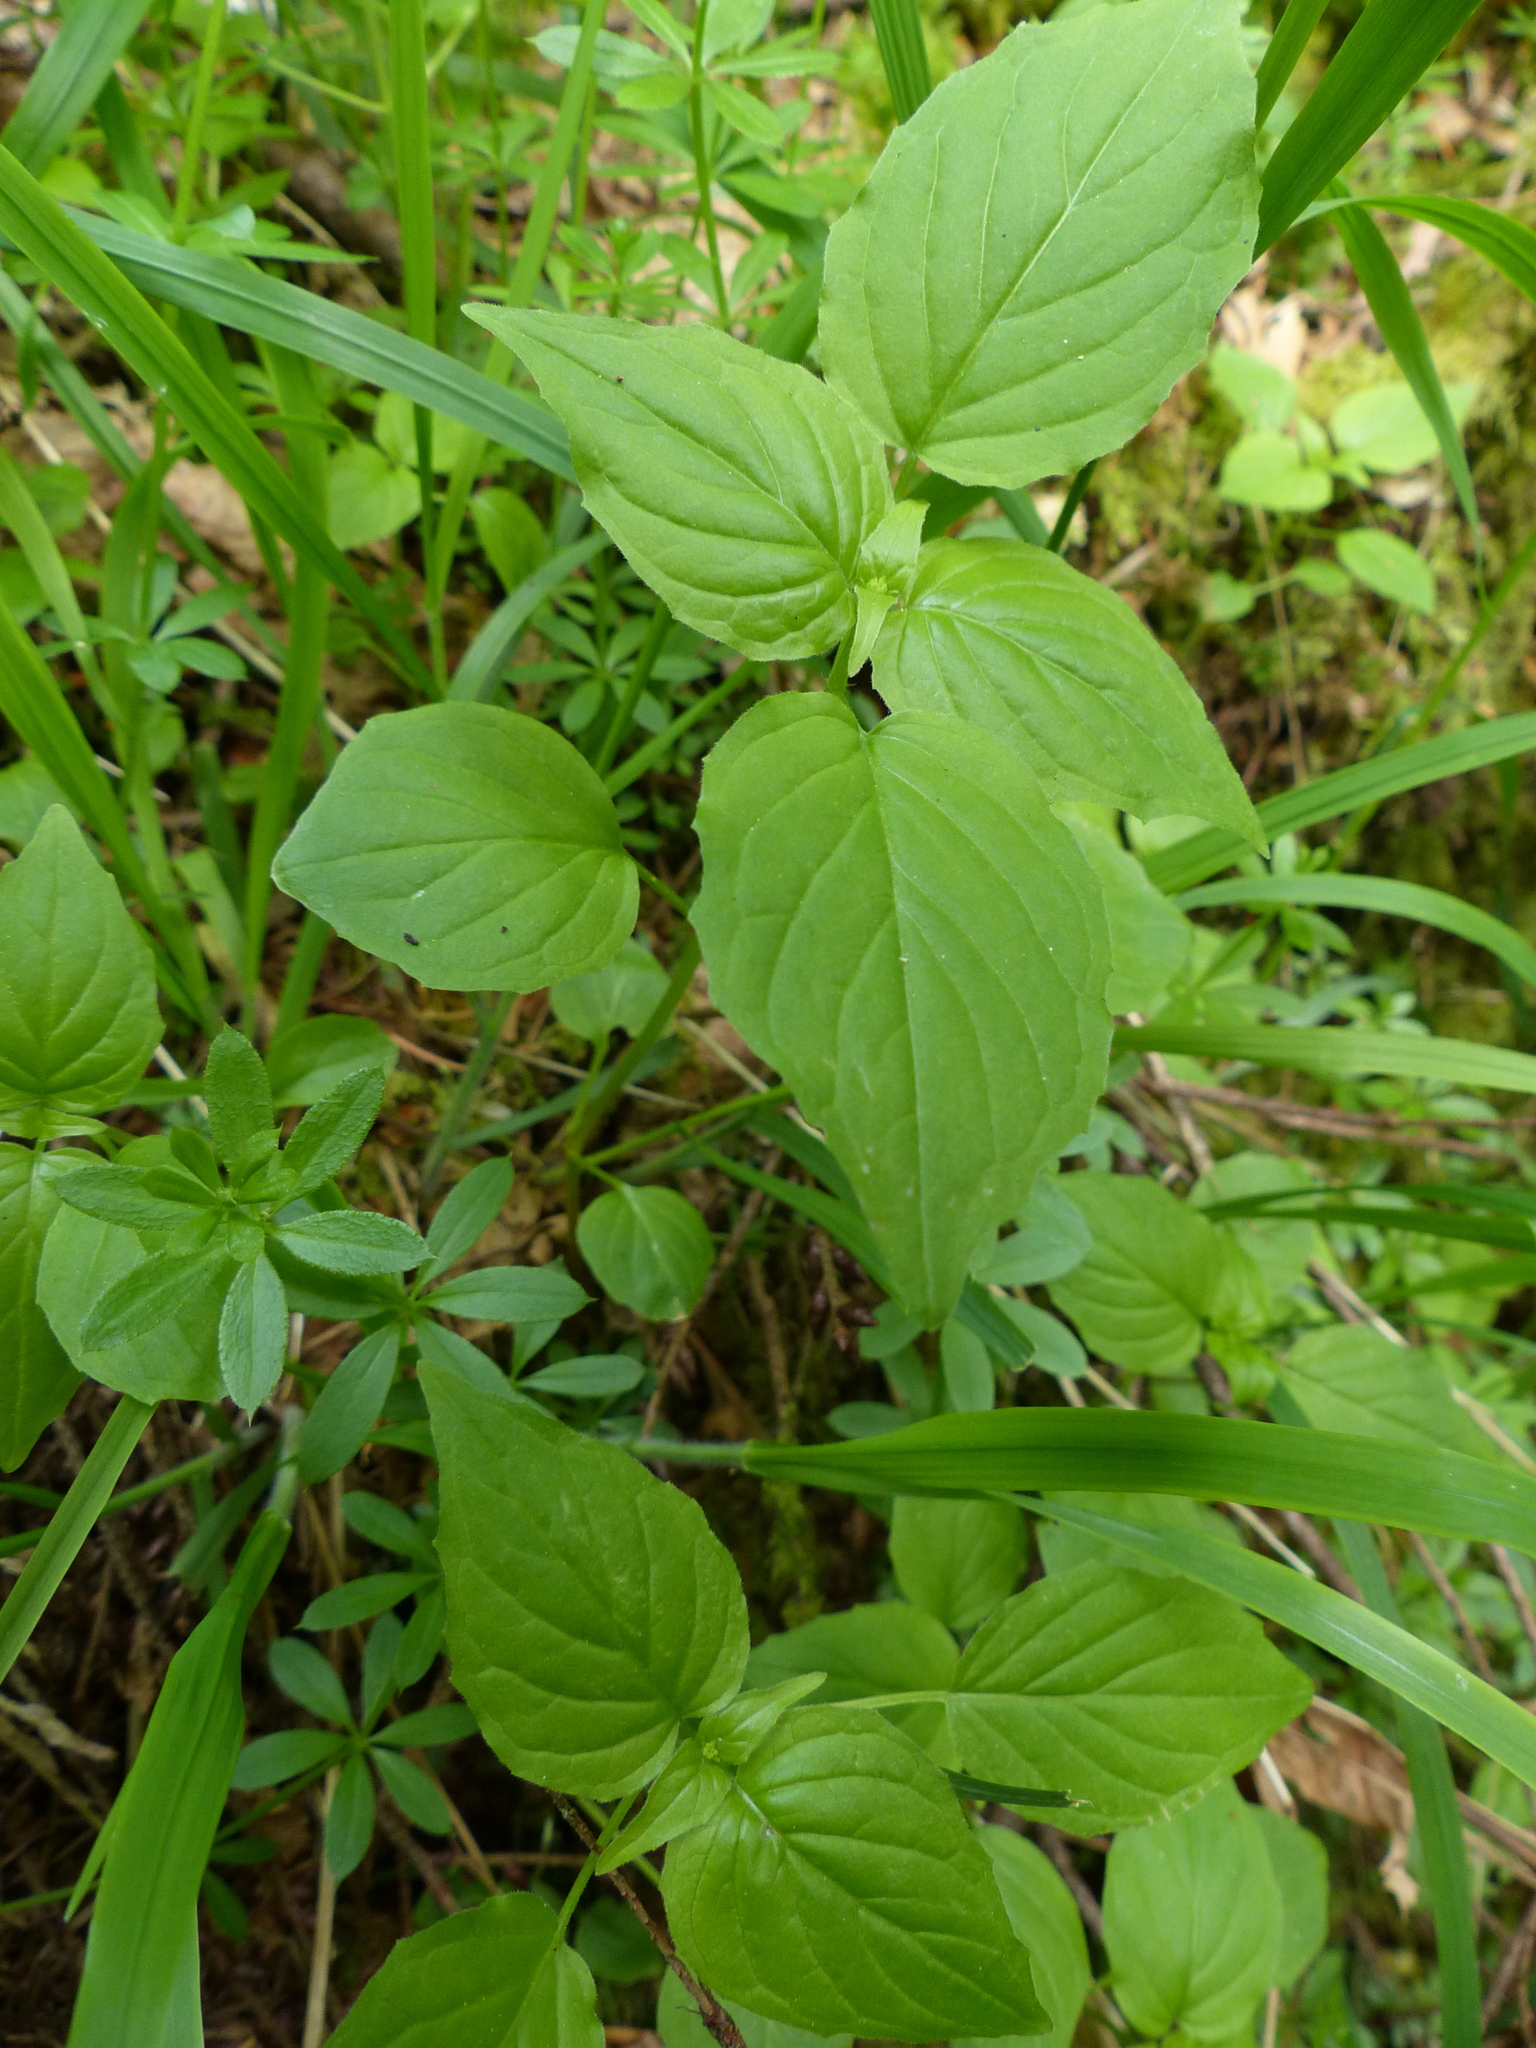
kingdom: Plantae
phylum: Tracheophyta
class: Magnoliopsida
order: Myrtales
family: Onagraceae
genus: Circaea
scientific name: Circaea alpina
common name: Alpine enchanter's-nightshade
